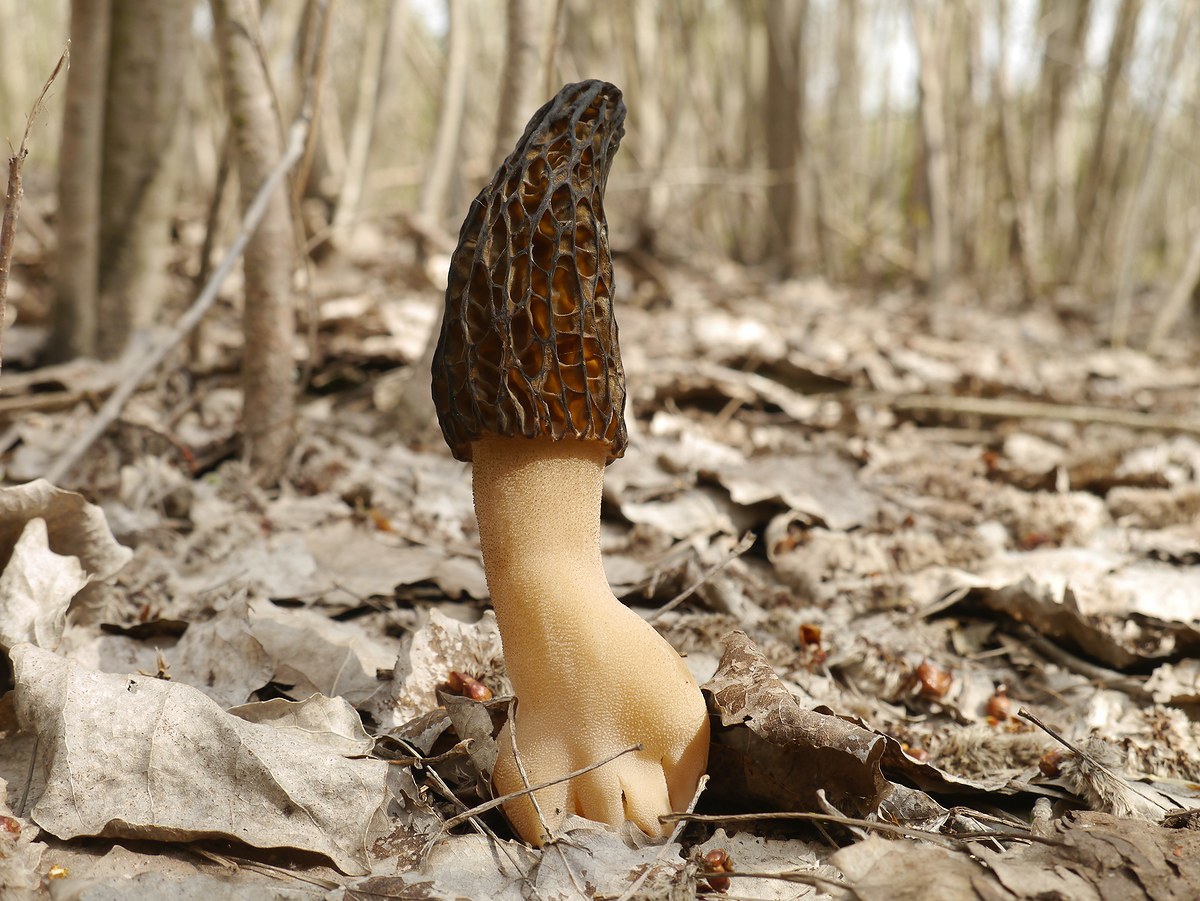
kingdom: Fungi
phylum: Ascomycota
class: Pezizomycetes
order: Pezizales
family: Morchellaceae
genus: Morchella
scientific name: Morchella
